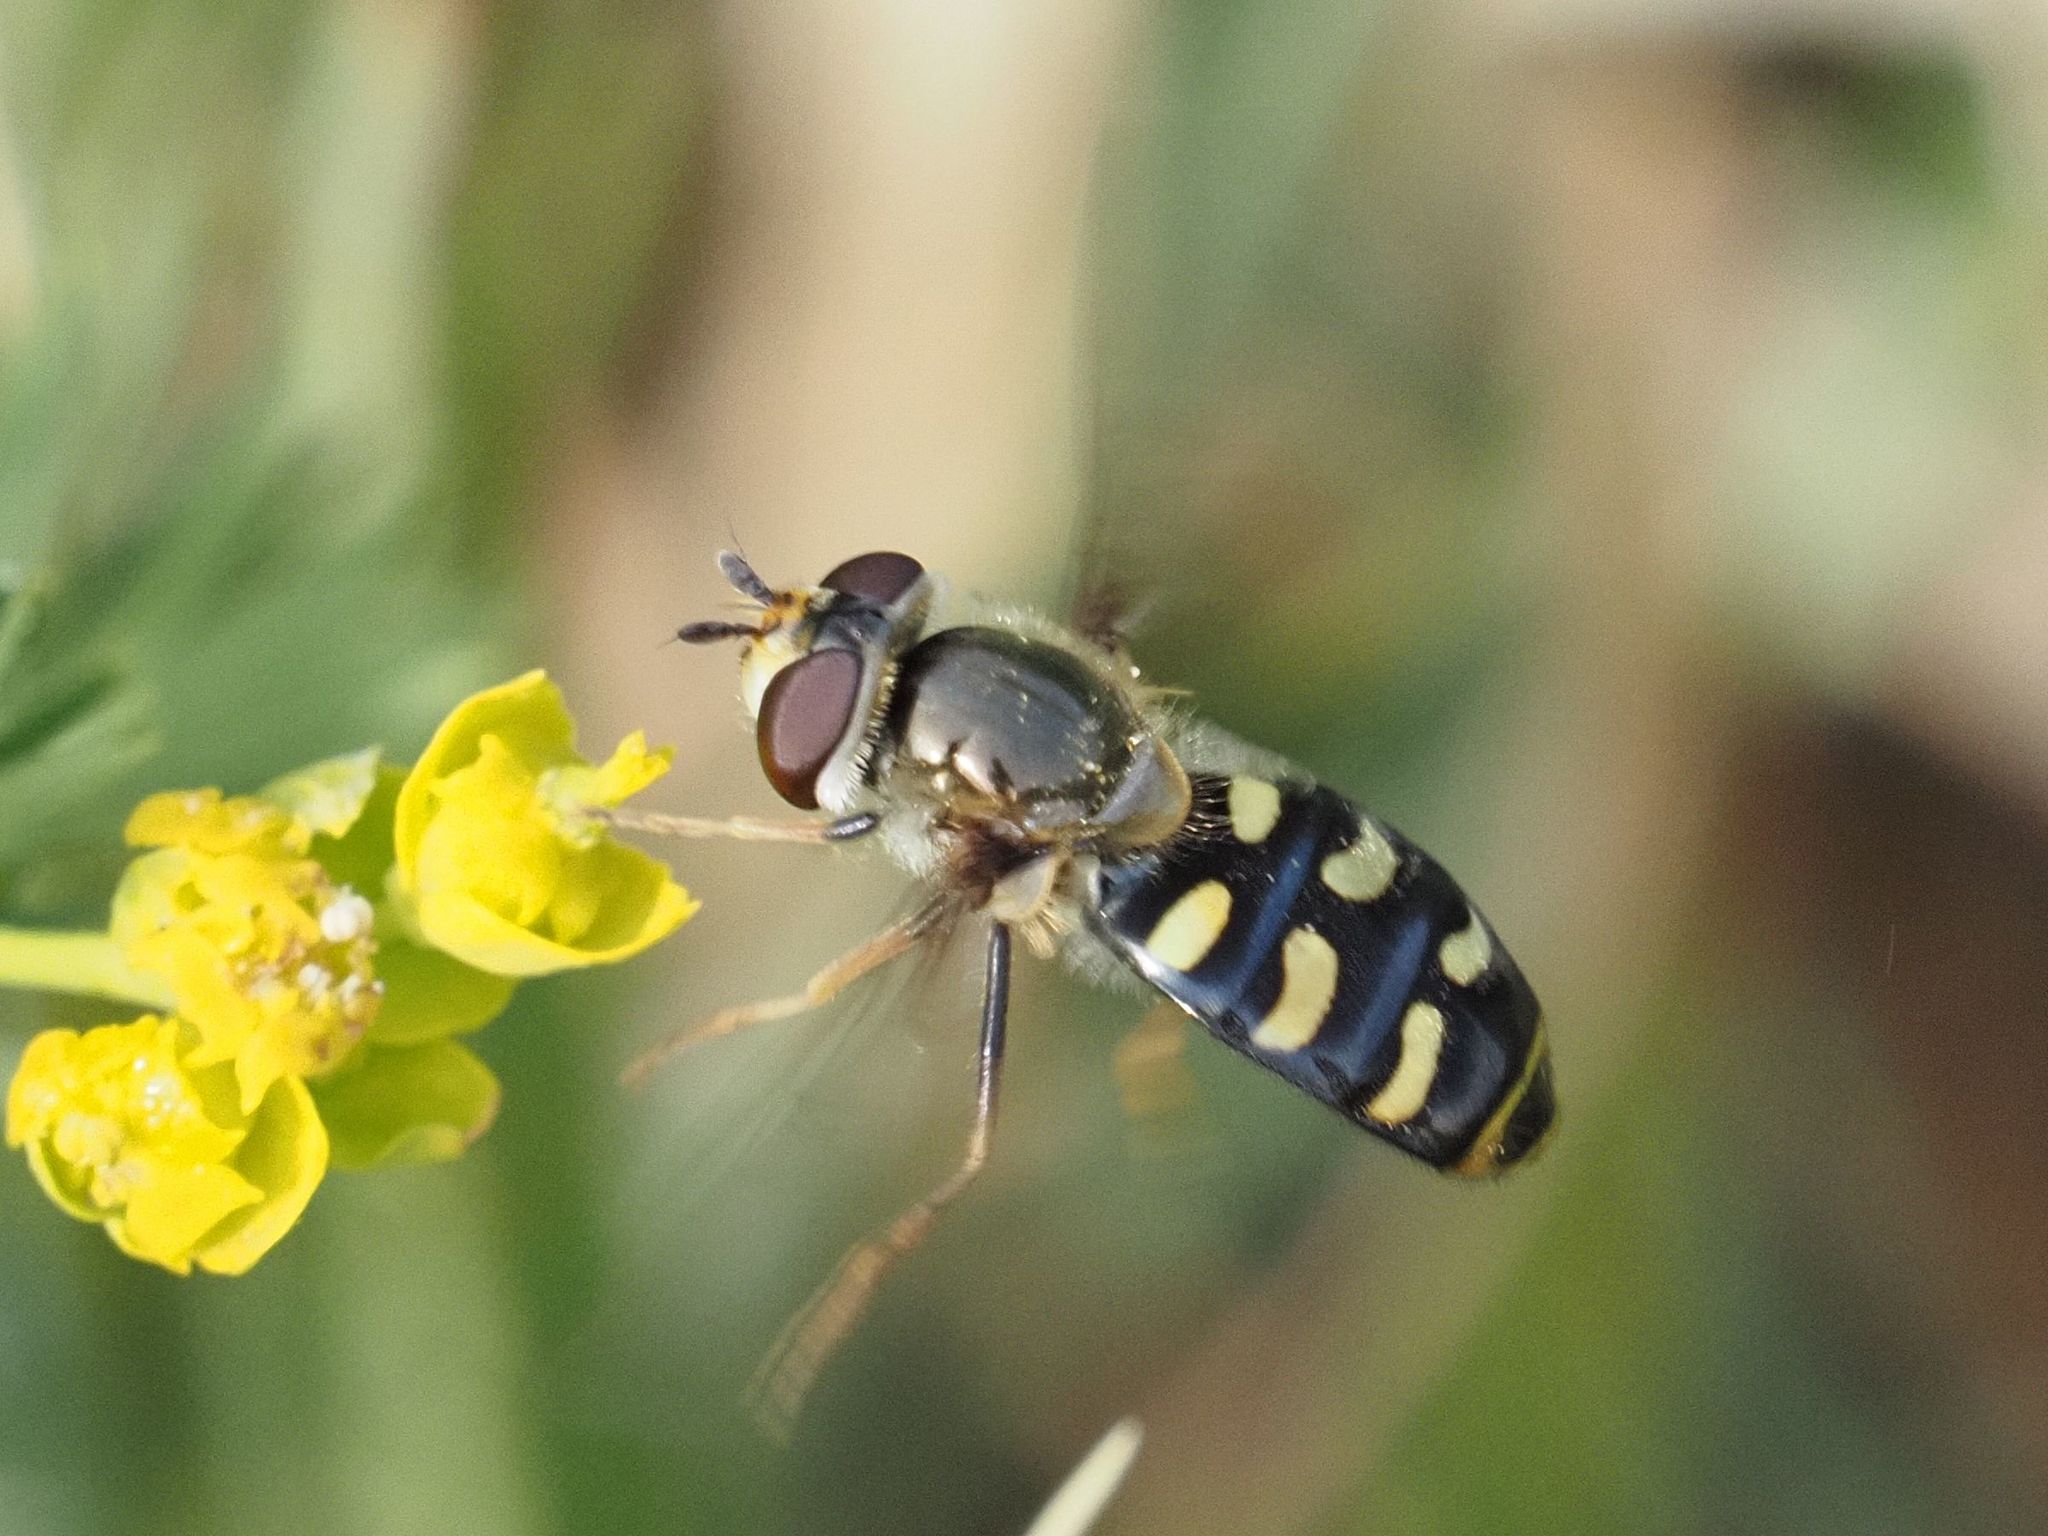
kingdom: Animalia
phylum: Arthropoda
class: Insecta
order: Diptera
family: Syrphidae
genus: Eupeodes
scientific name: Eupeodes luniger
